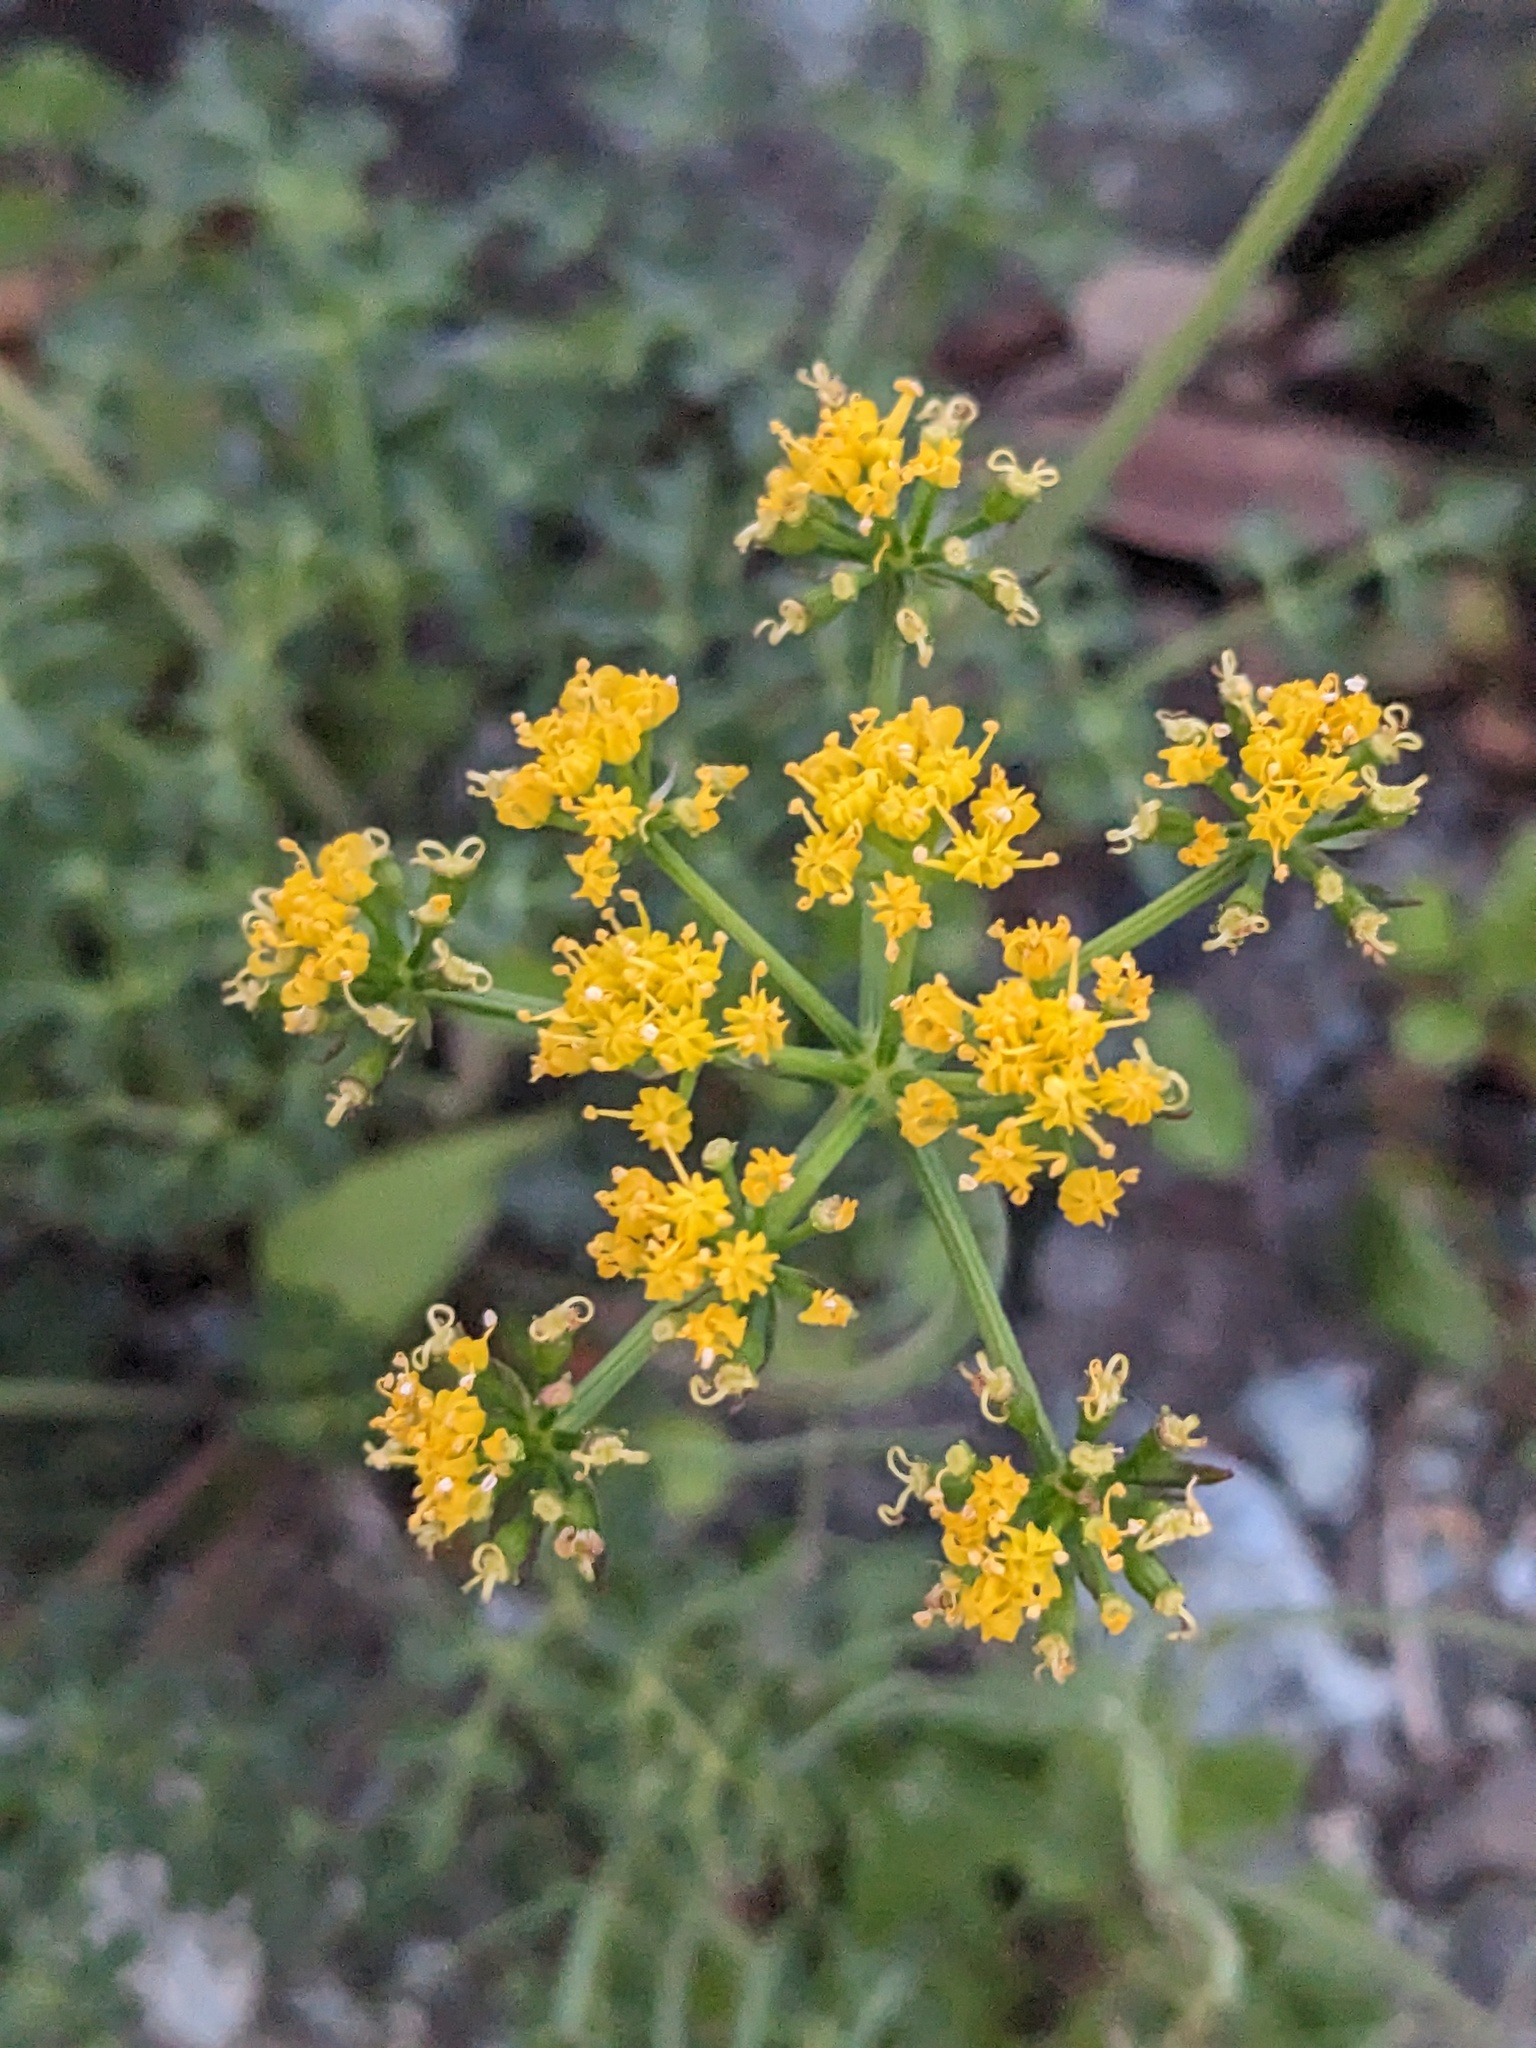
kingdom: Plantae
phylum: Tracheophyta
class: Magnoliopsida
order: Apiales
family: Apiaceae
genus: Lomatium
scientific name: Lomatium parvifolium
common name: Small-leaf lomatium
